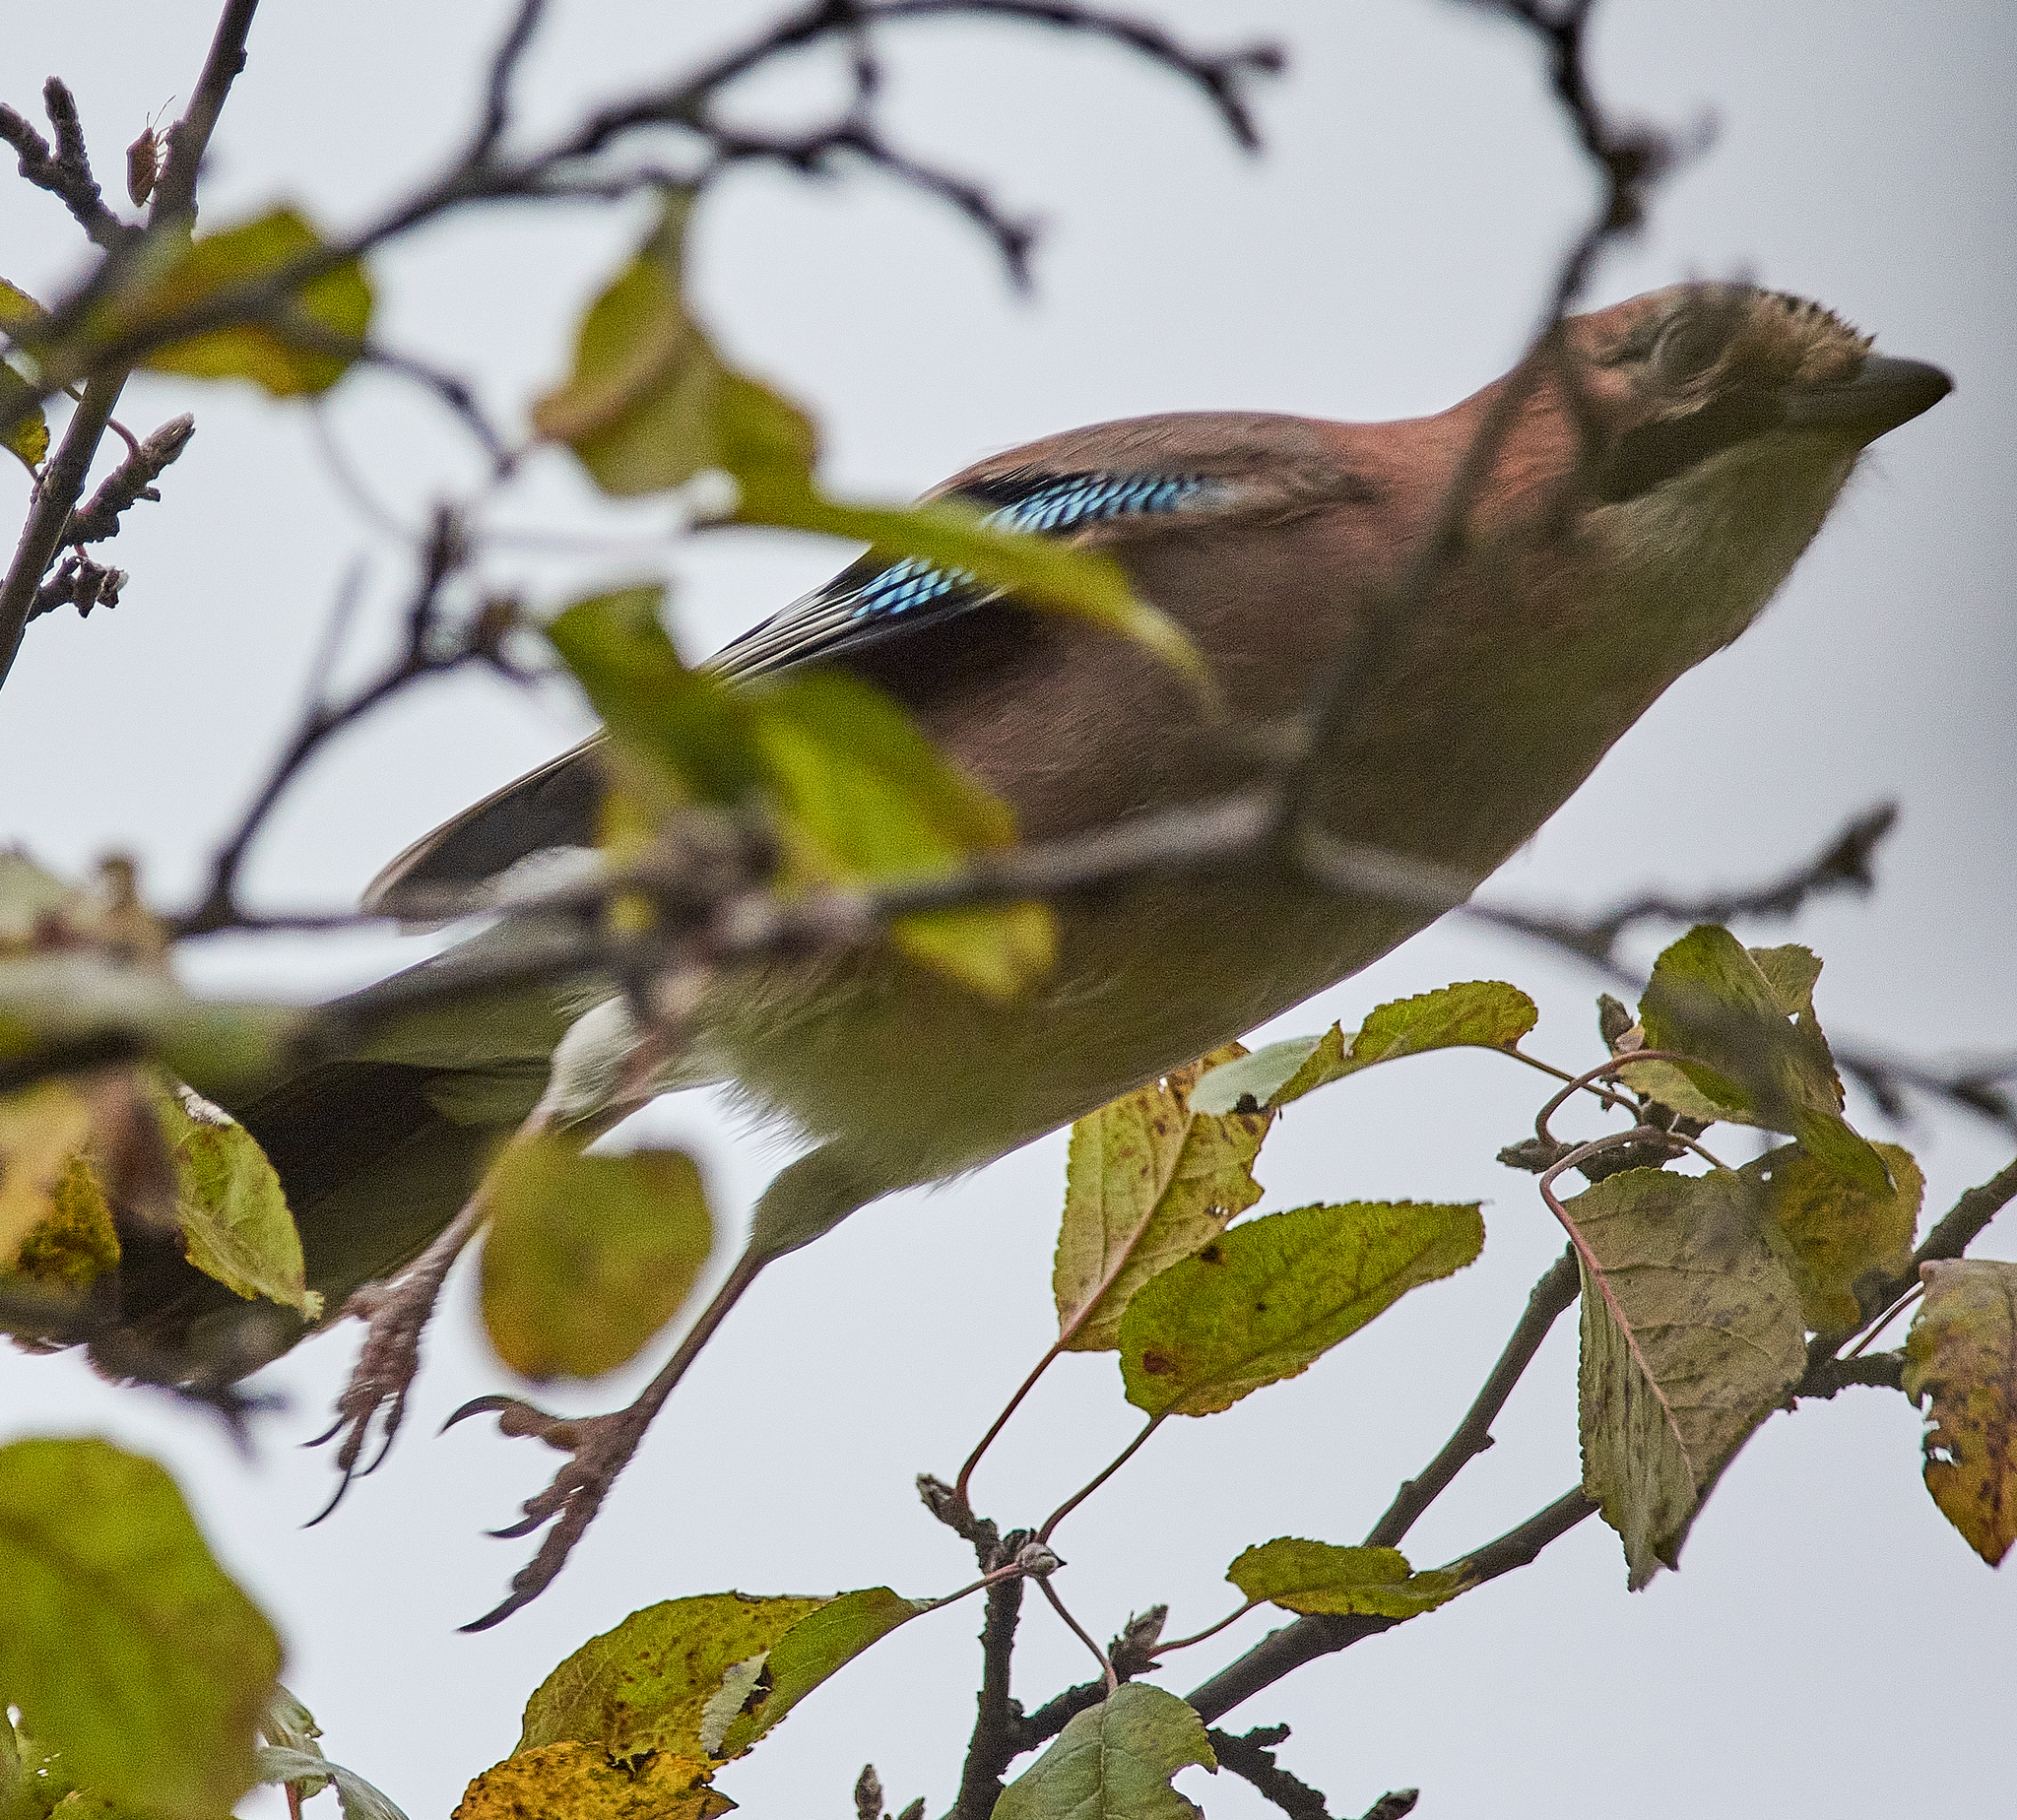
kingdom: Animalia
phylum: Chordata
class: Aves
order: Passeriformes
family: Corvidae
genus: Garrulus
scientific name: Garrulus glandarius
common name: Eurasian jay
